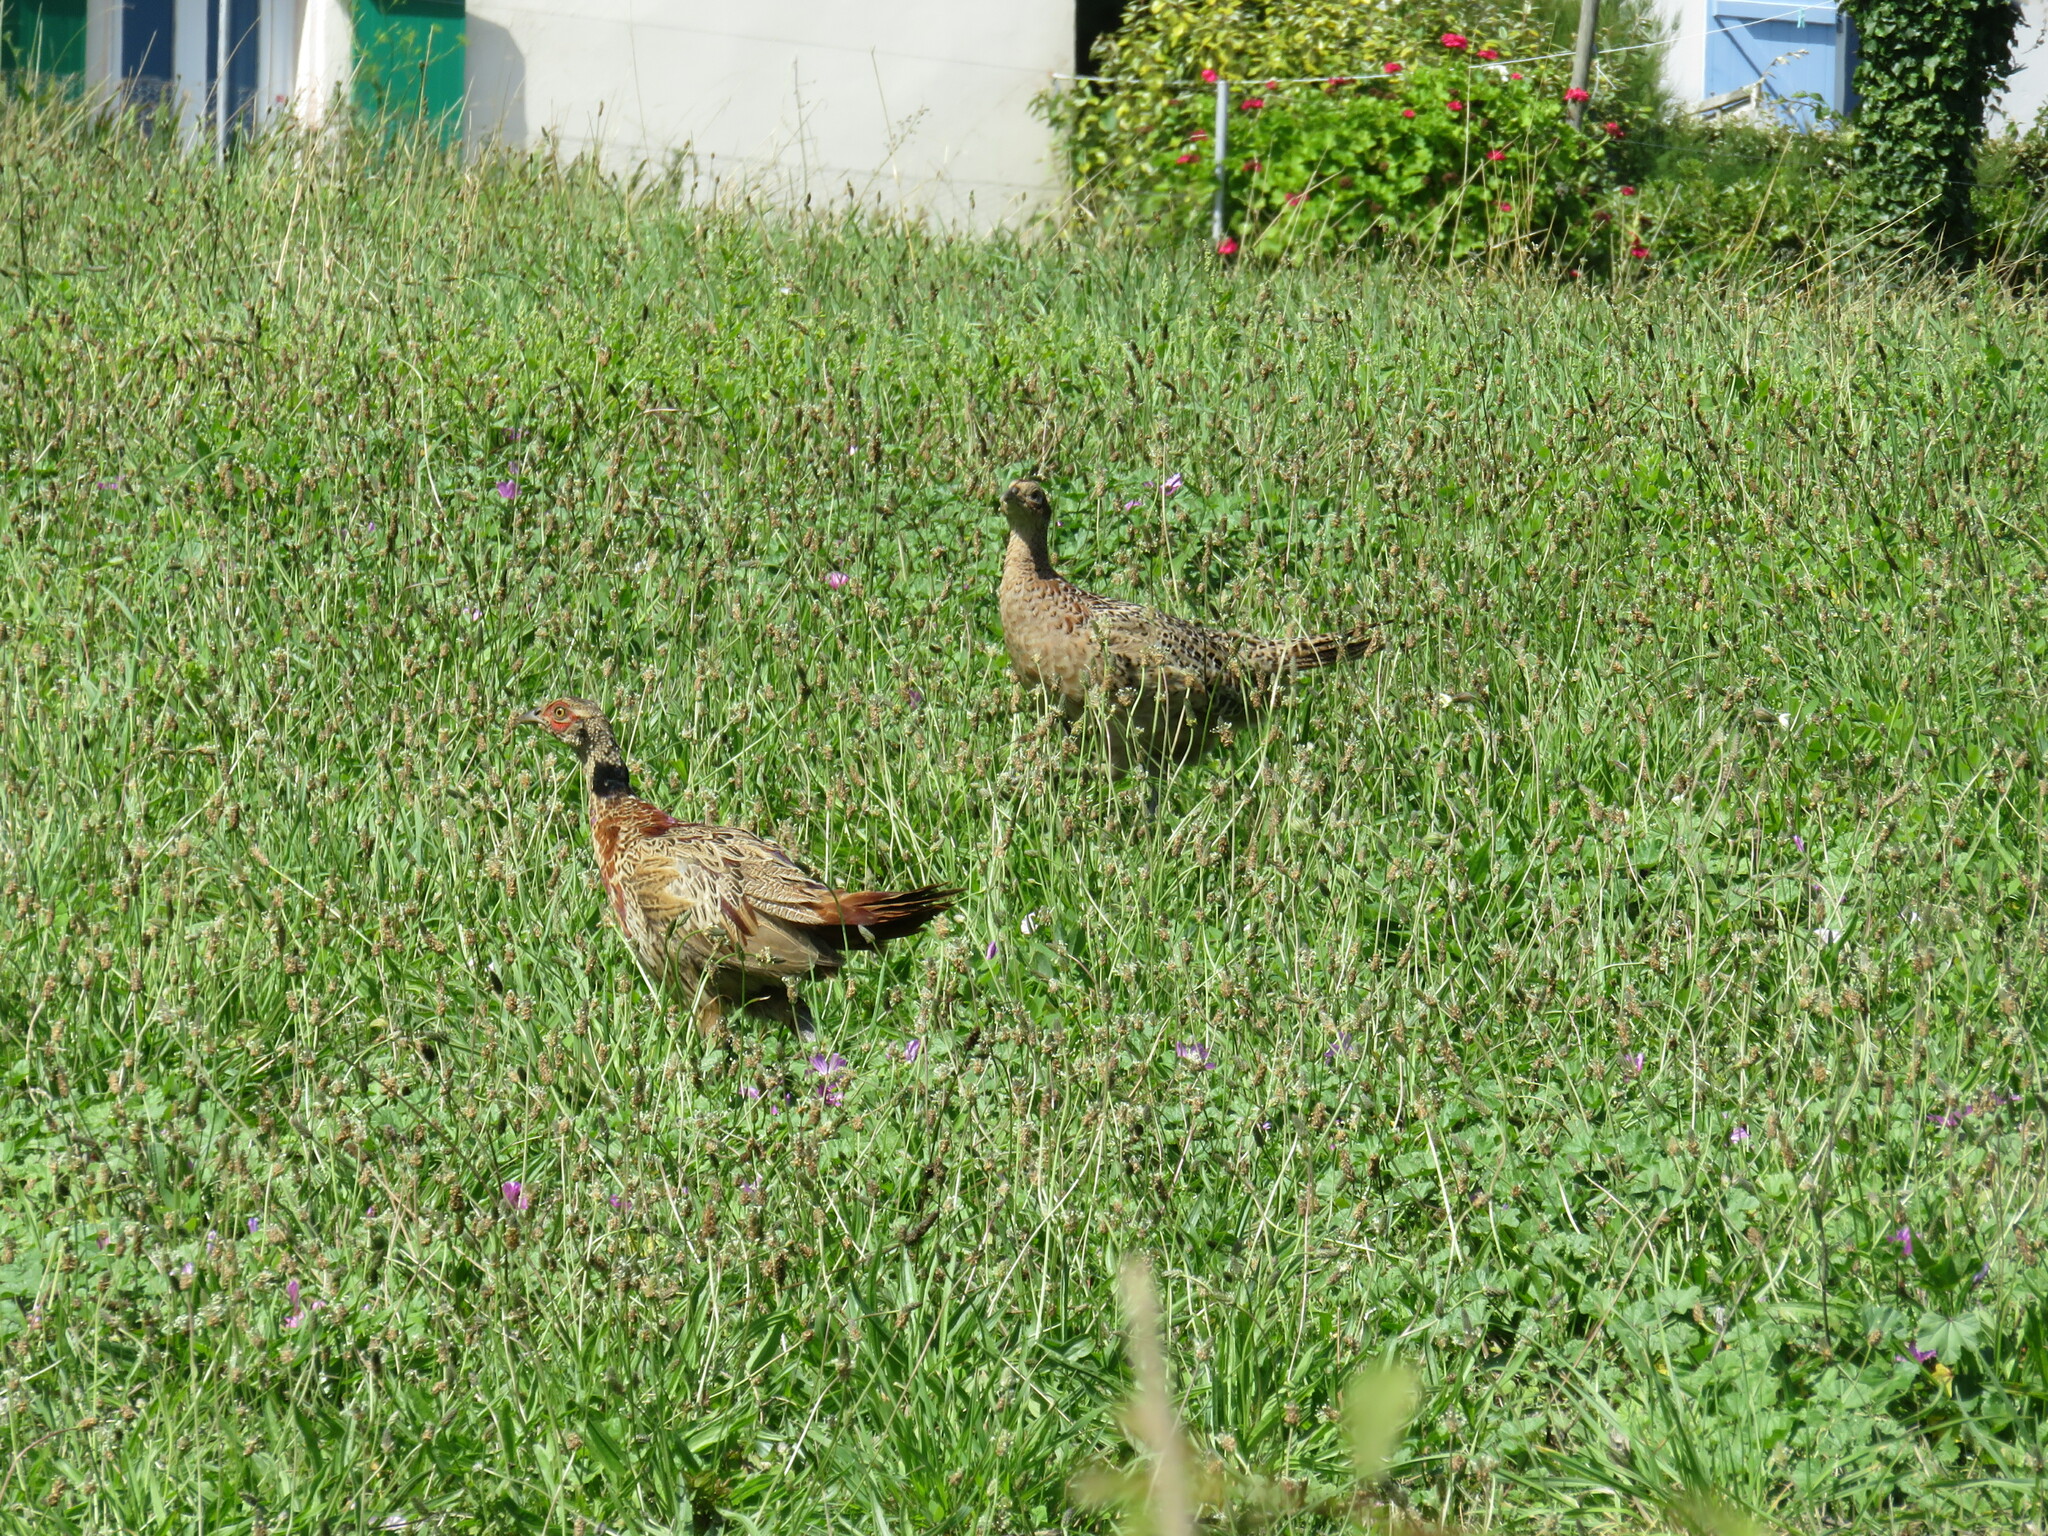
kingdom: Animalia
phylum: Chordata
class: Aves
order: Galliformes
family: Phasianidae
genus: Phasianus
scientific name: Phasianus colchicus
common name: Common pheasant
